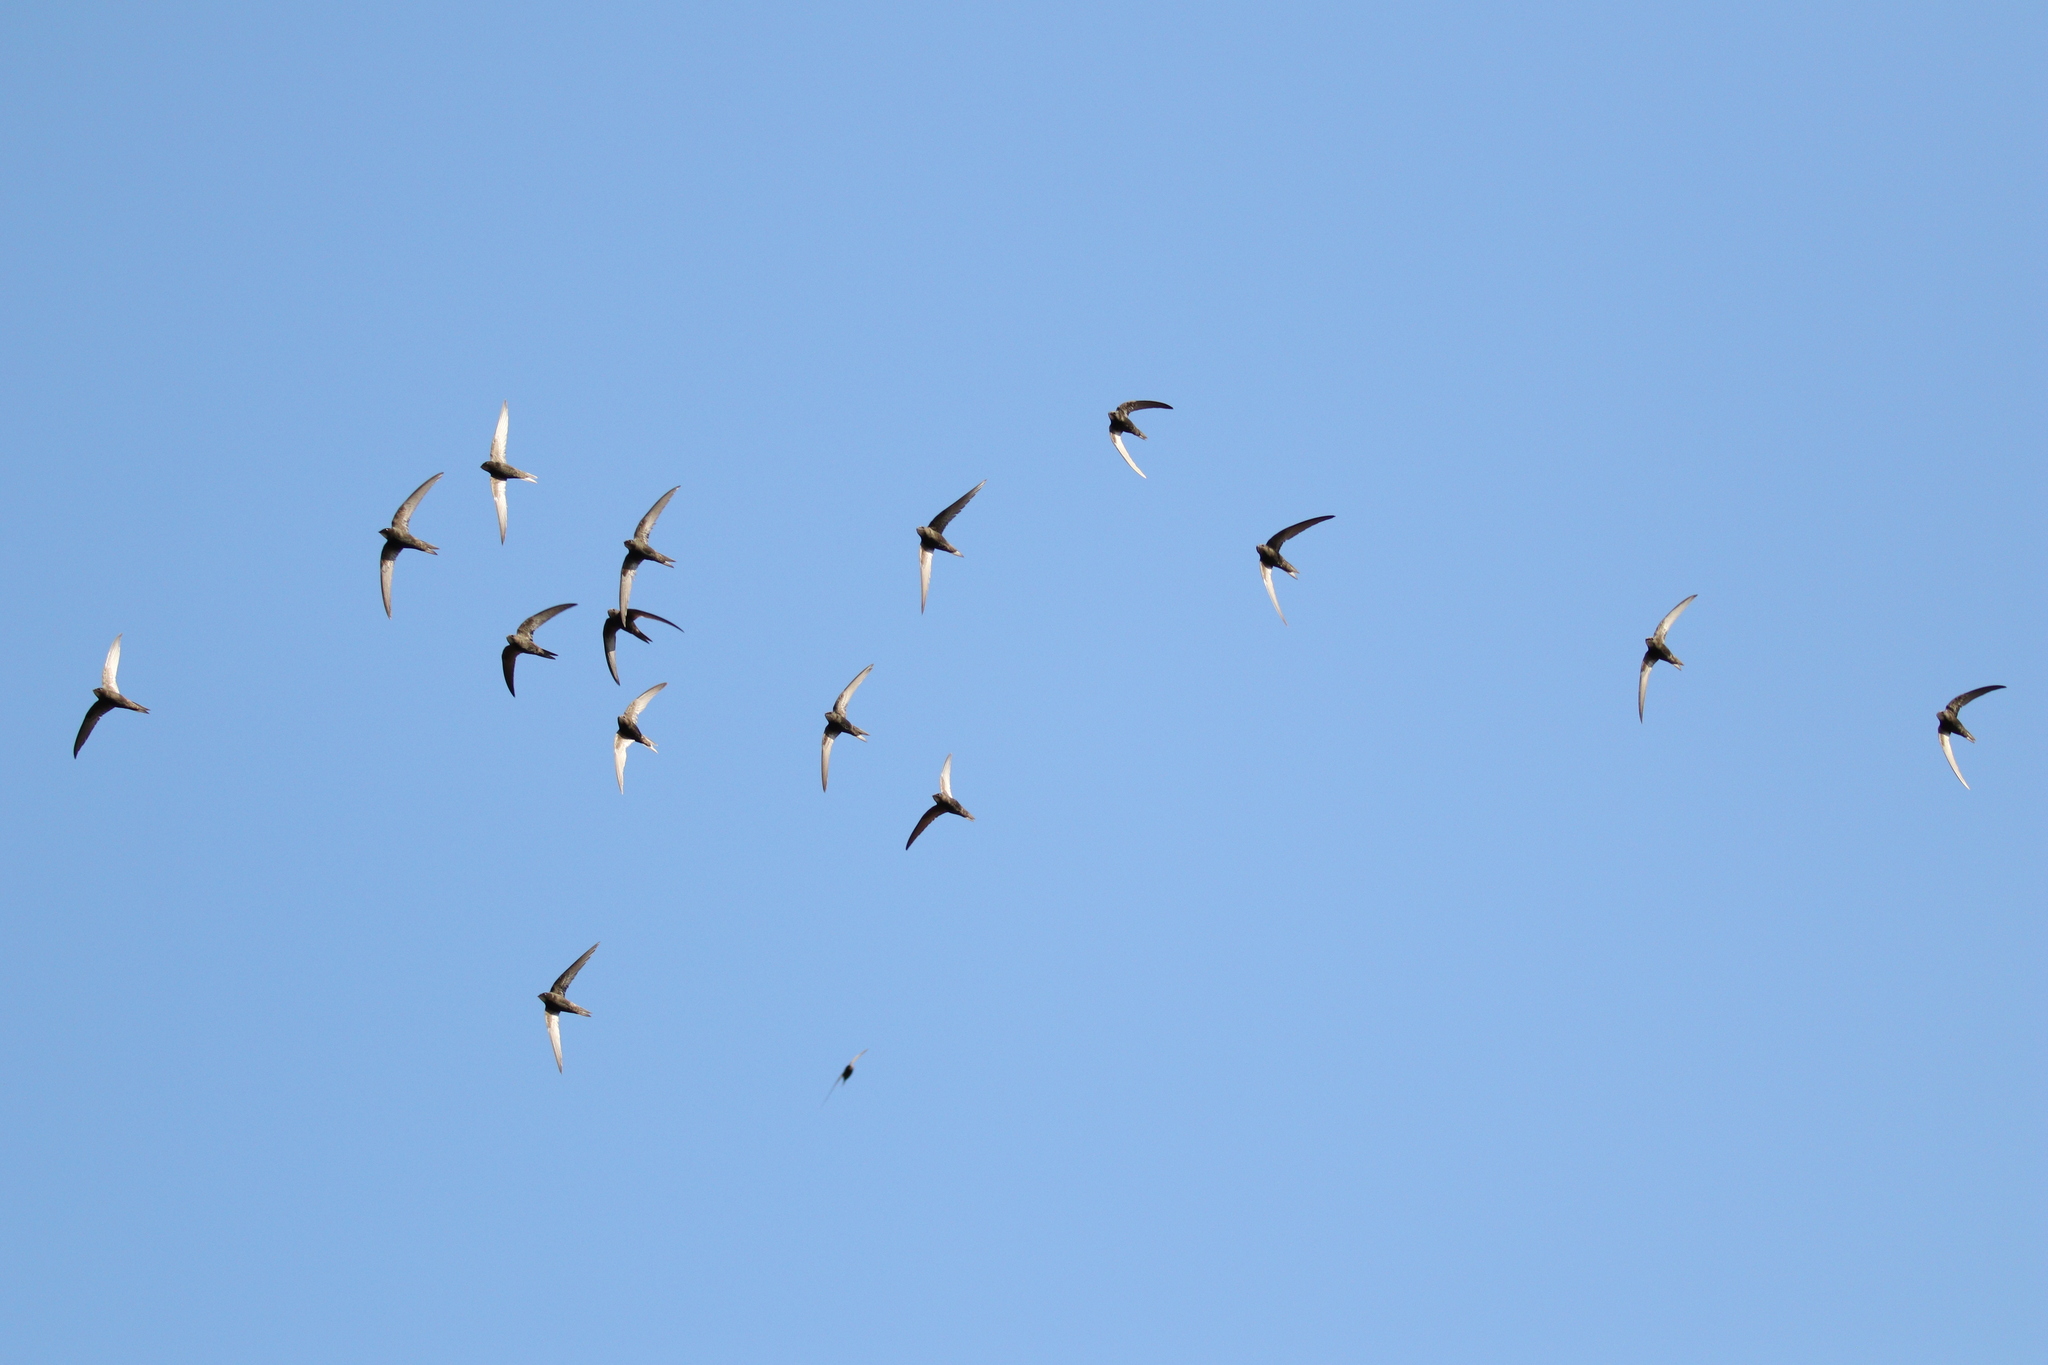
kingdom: Animalia
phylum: Chordata
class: Aves
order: Apodiformes
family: Apodidae
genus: Apus
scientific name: Apus apus
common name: Common swift
